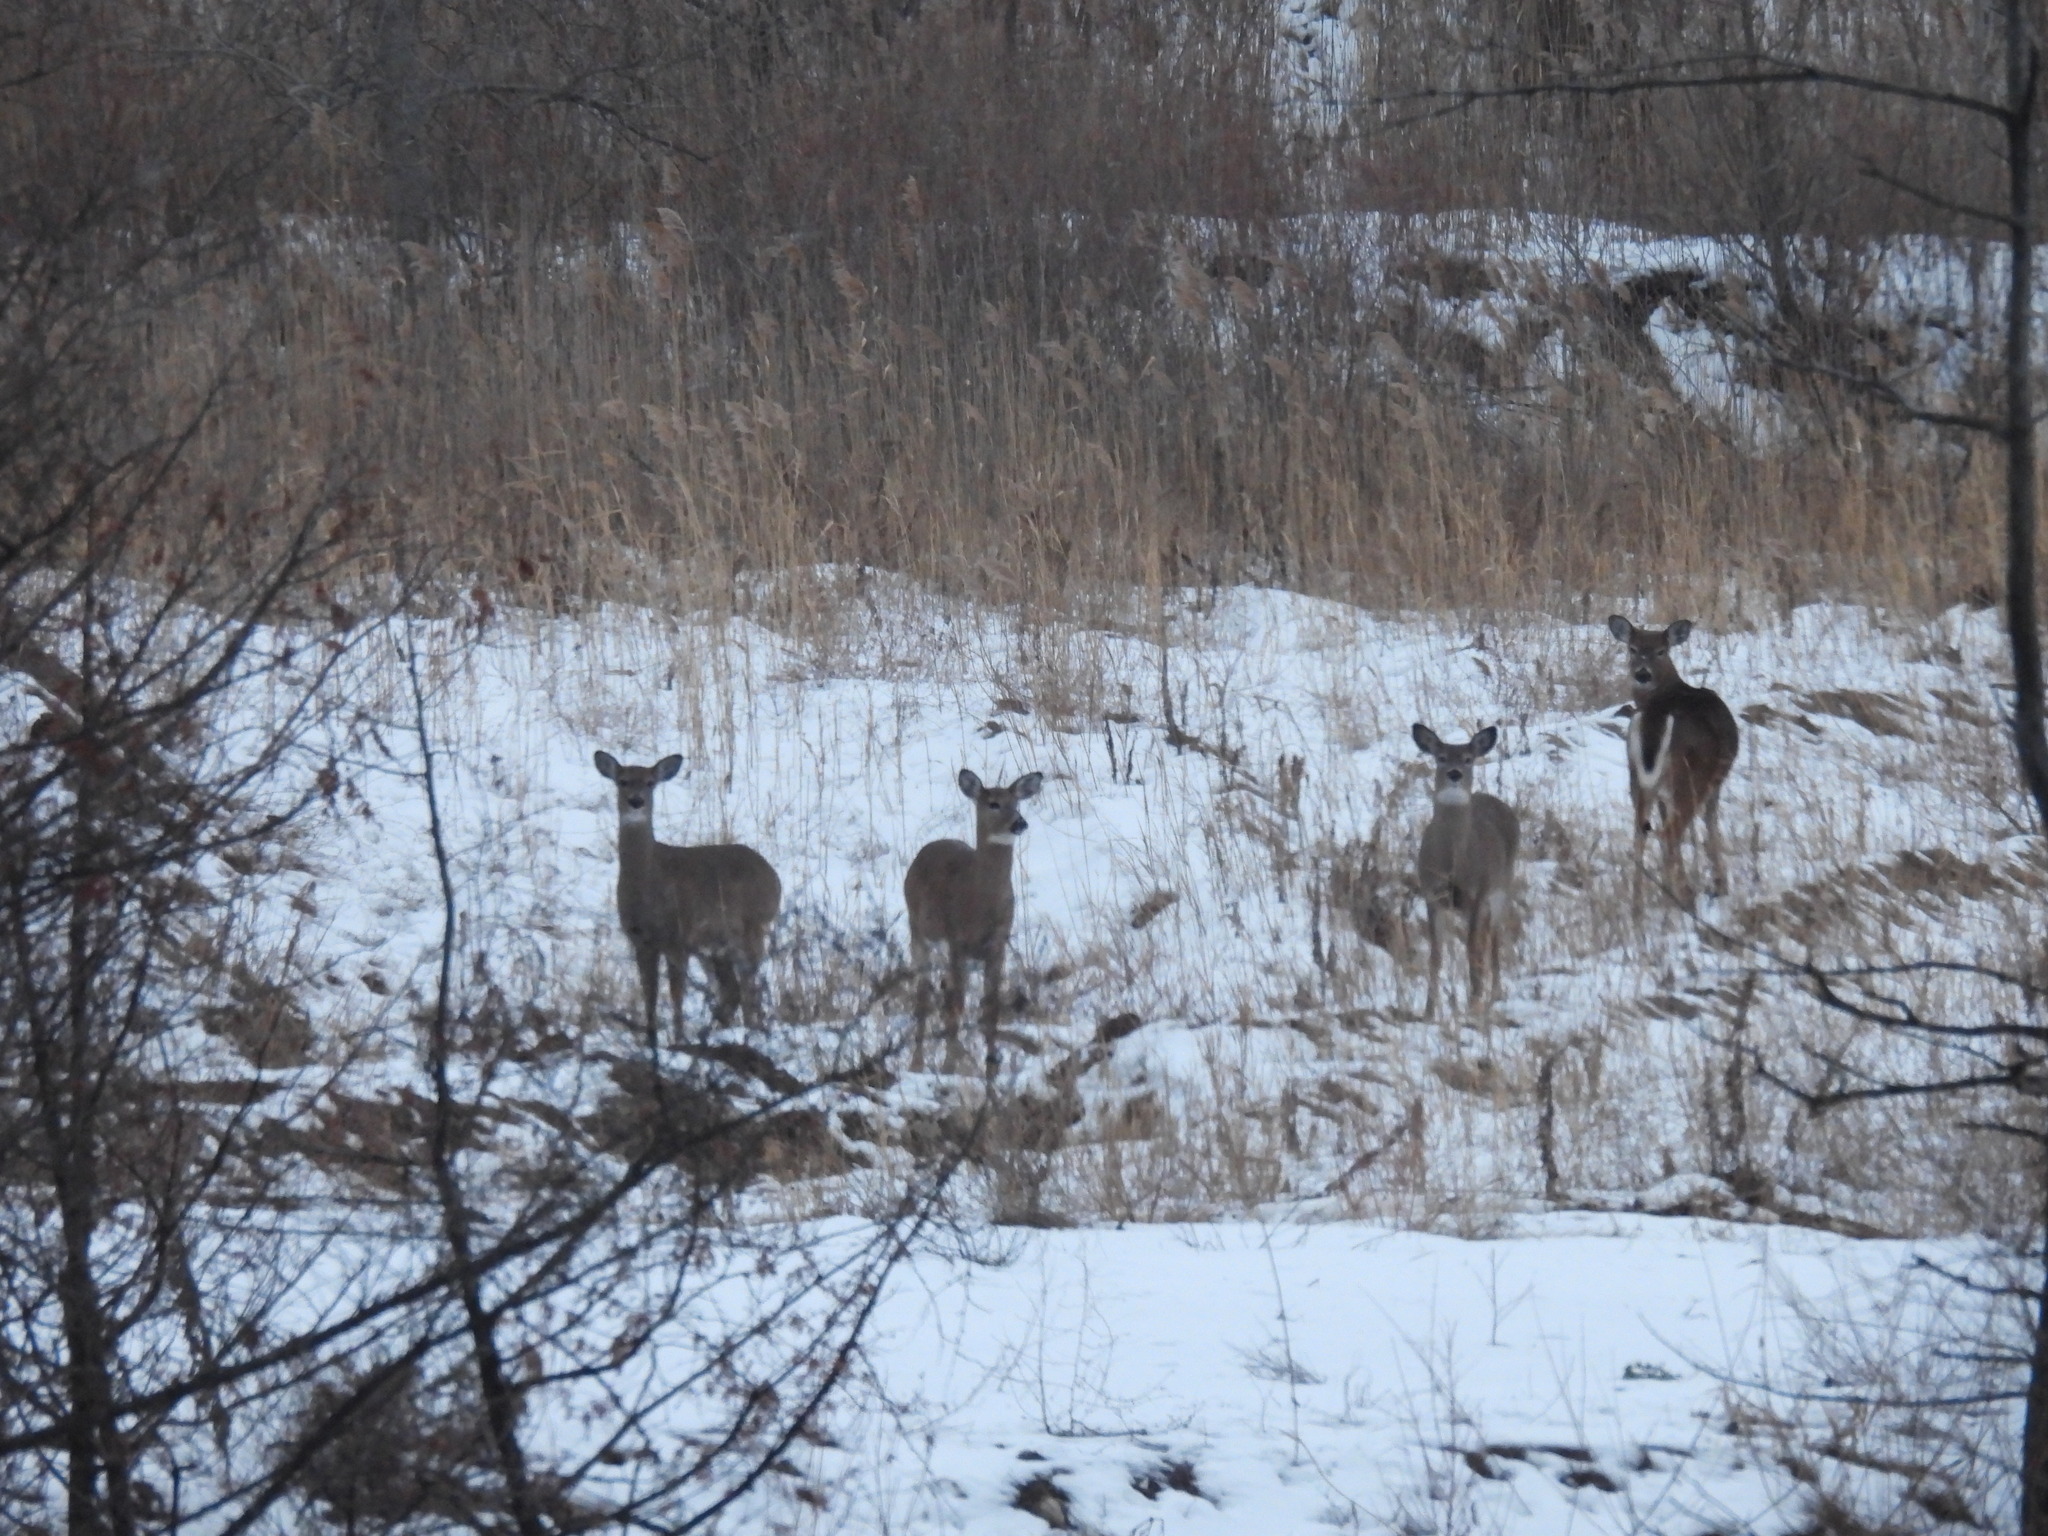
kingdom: Animalia
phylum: Chordata
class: Mammalia
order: Artiodactyla
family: Cervidae
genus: Odocoileus
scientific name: Odocoileus virginianus
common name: White-tailed deer
